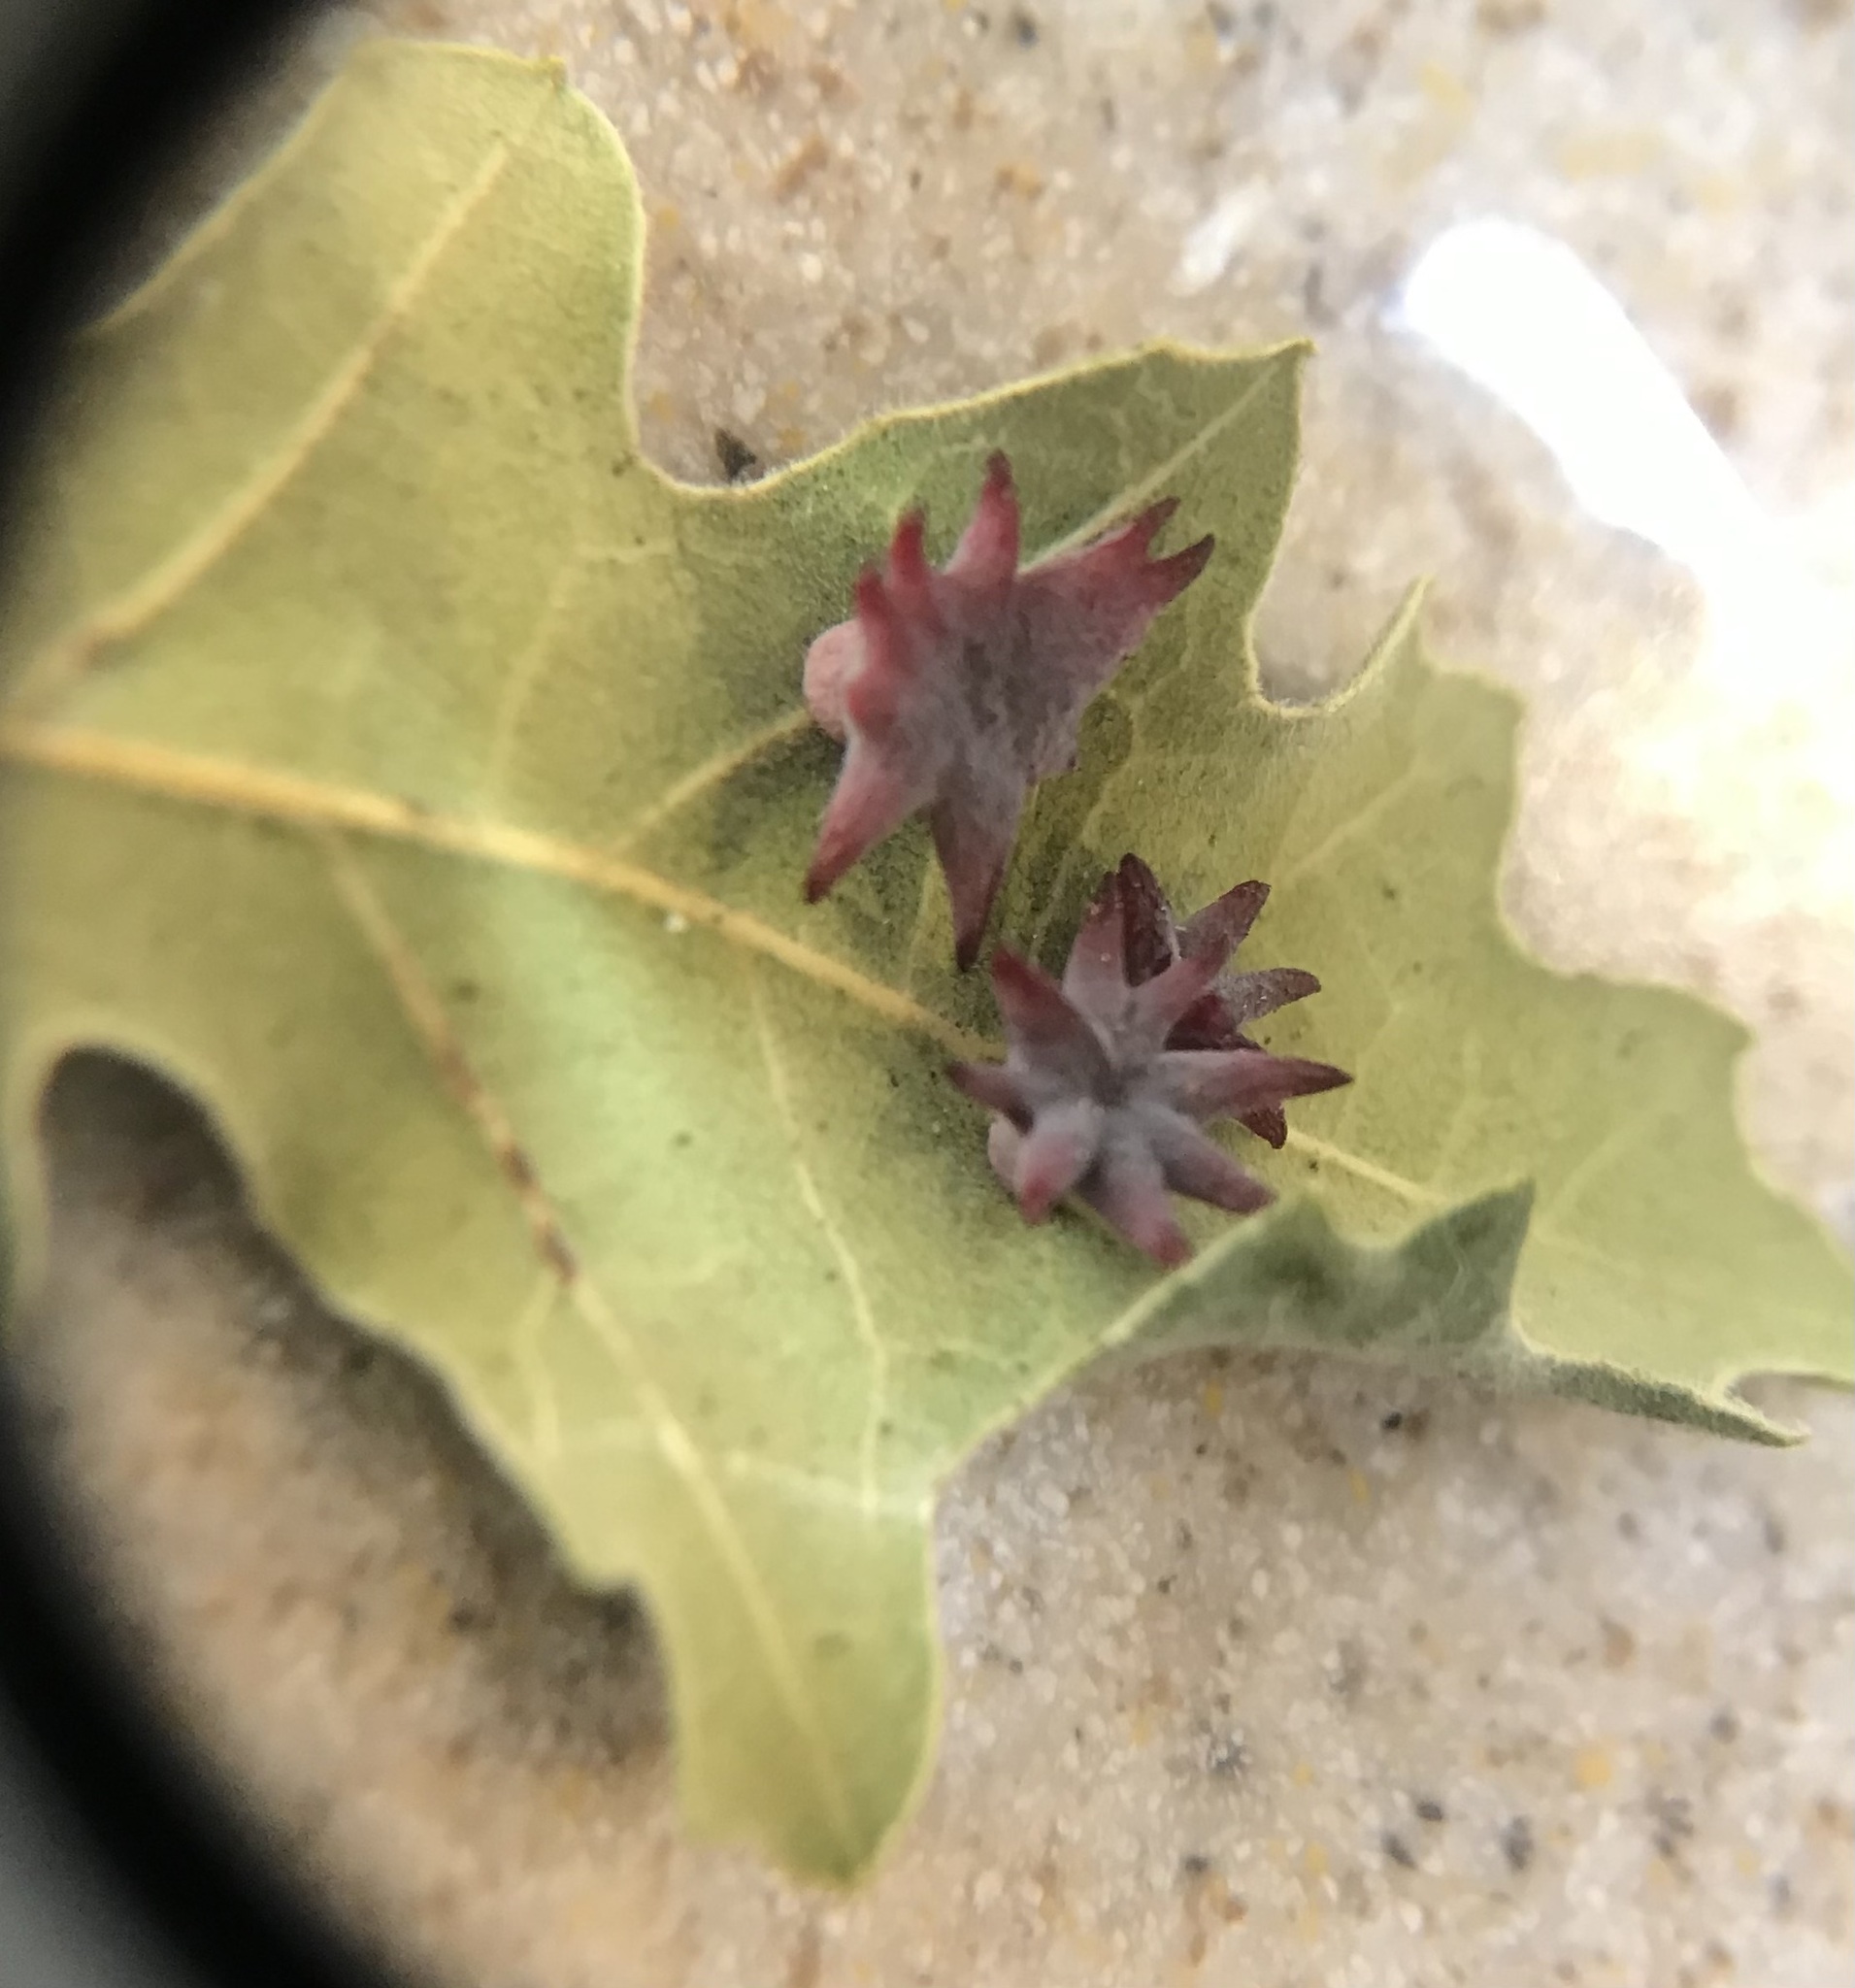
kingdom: Animalia
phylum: Arthropoda
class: Insecta
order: Hymenoptera
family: Cynipidae
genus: Cynips
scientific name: Cynips douglasi
